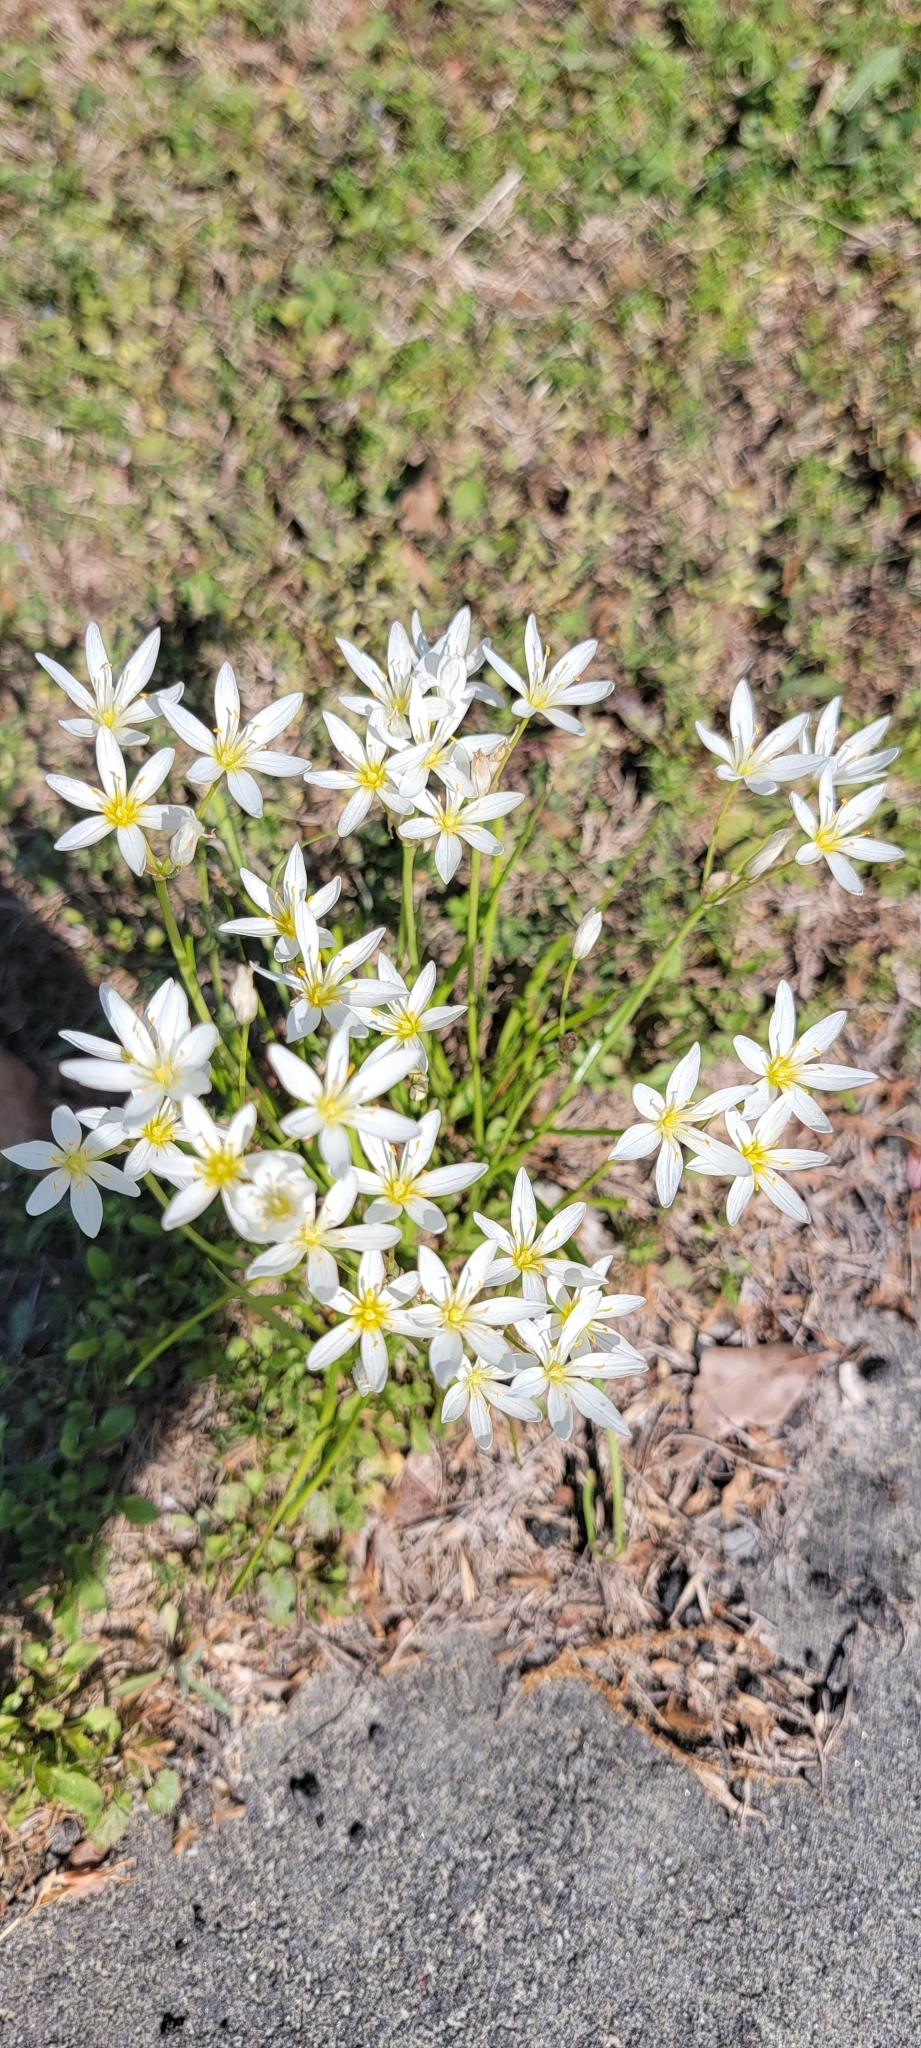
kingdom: Plantae
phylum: Tracheophyta
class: Liliopsida
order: Asparagales
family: Amaryllidaceae
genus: Nothoscordum
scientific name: Nothoscordum bivalve
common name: Crow-poison
